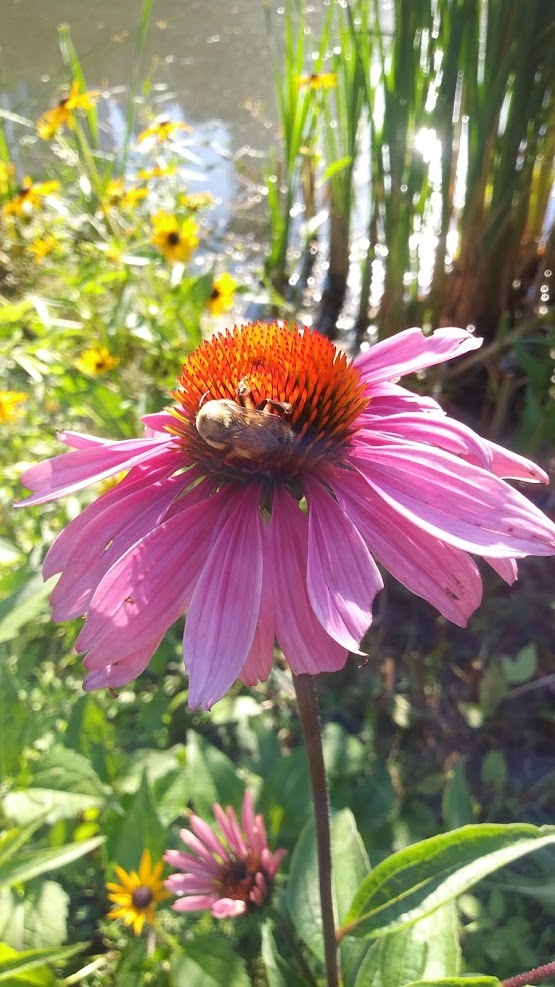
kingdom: Plantae
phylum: Tracheophyta
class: Magnoliopsida
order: Asterales
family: Asteraceae
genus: Echinacea
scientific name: Echinacea purpurea
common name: Broad-leaved purple coneflower
